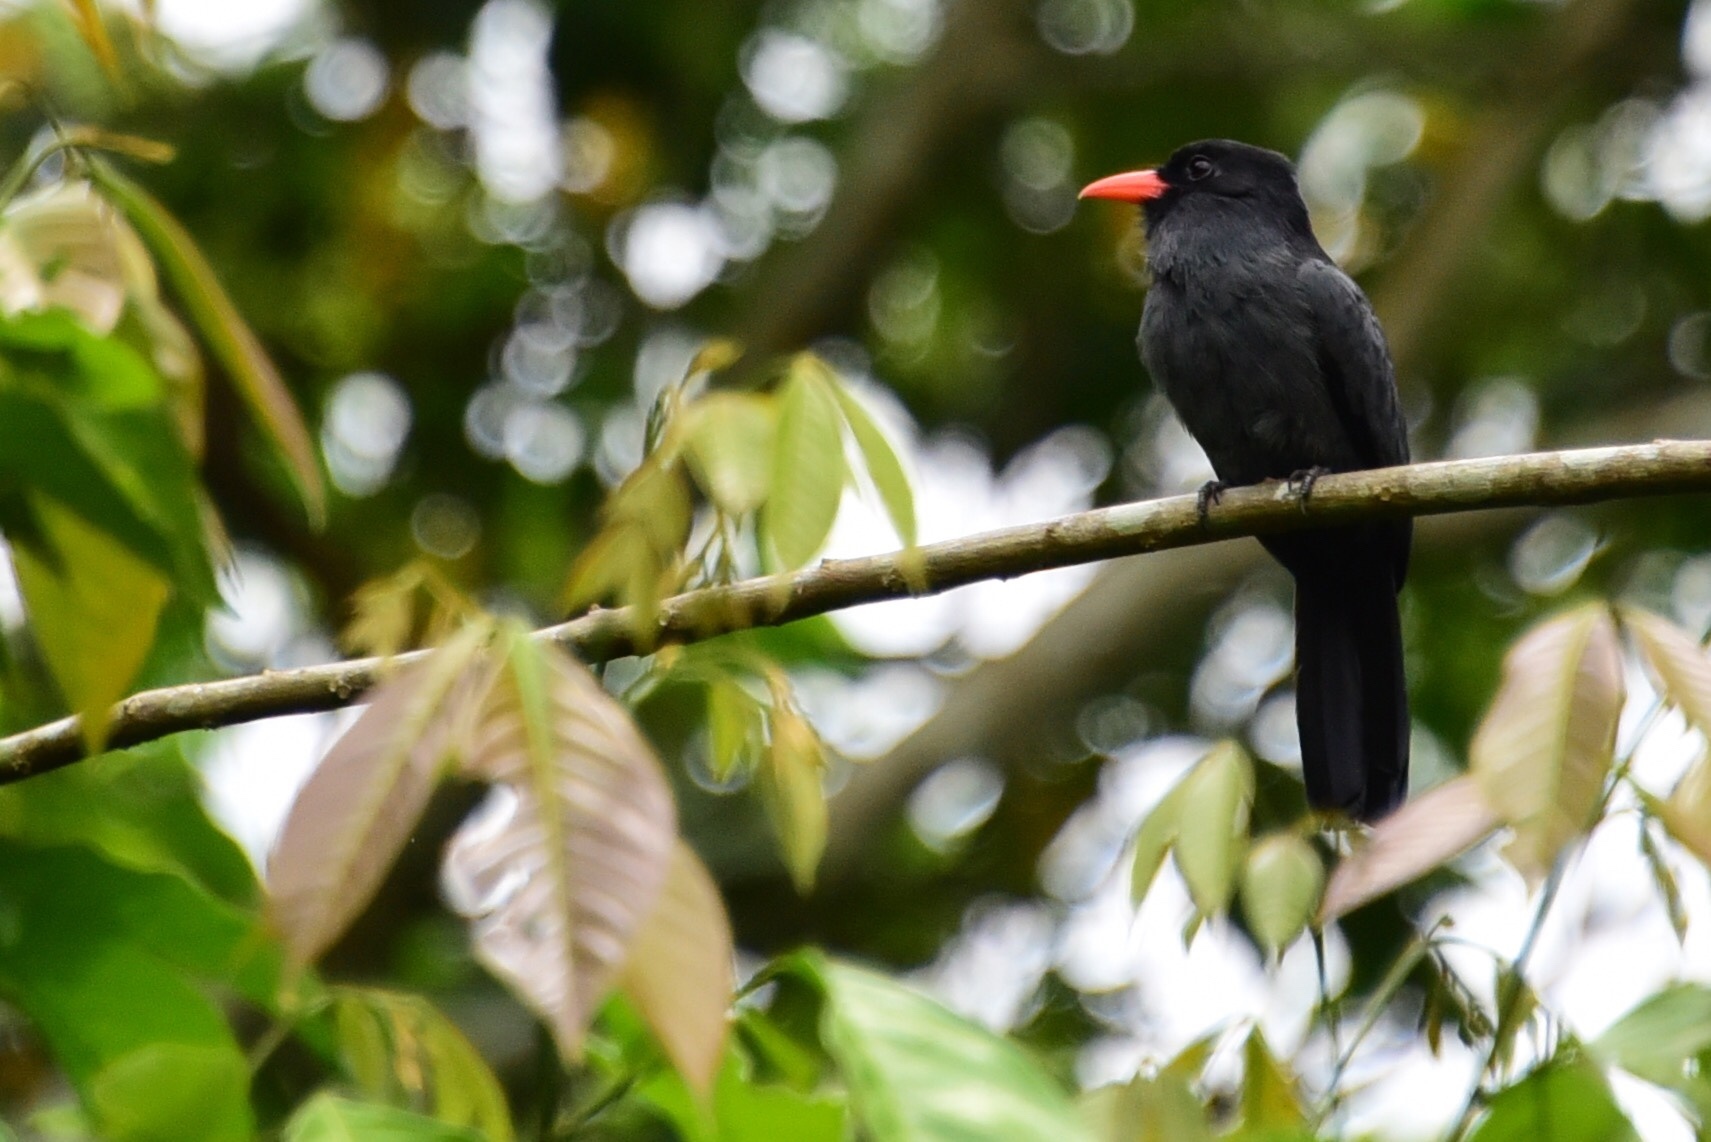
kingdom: Animalia
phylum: Chordata
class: Aves
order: Piciformes
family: Bucconidae
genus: Monasa
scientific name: Monasa nigrifrons
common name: Black-fronted nunbird
